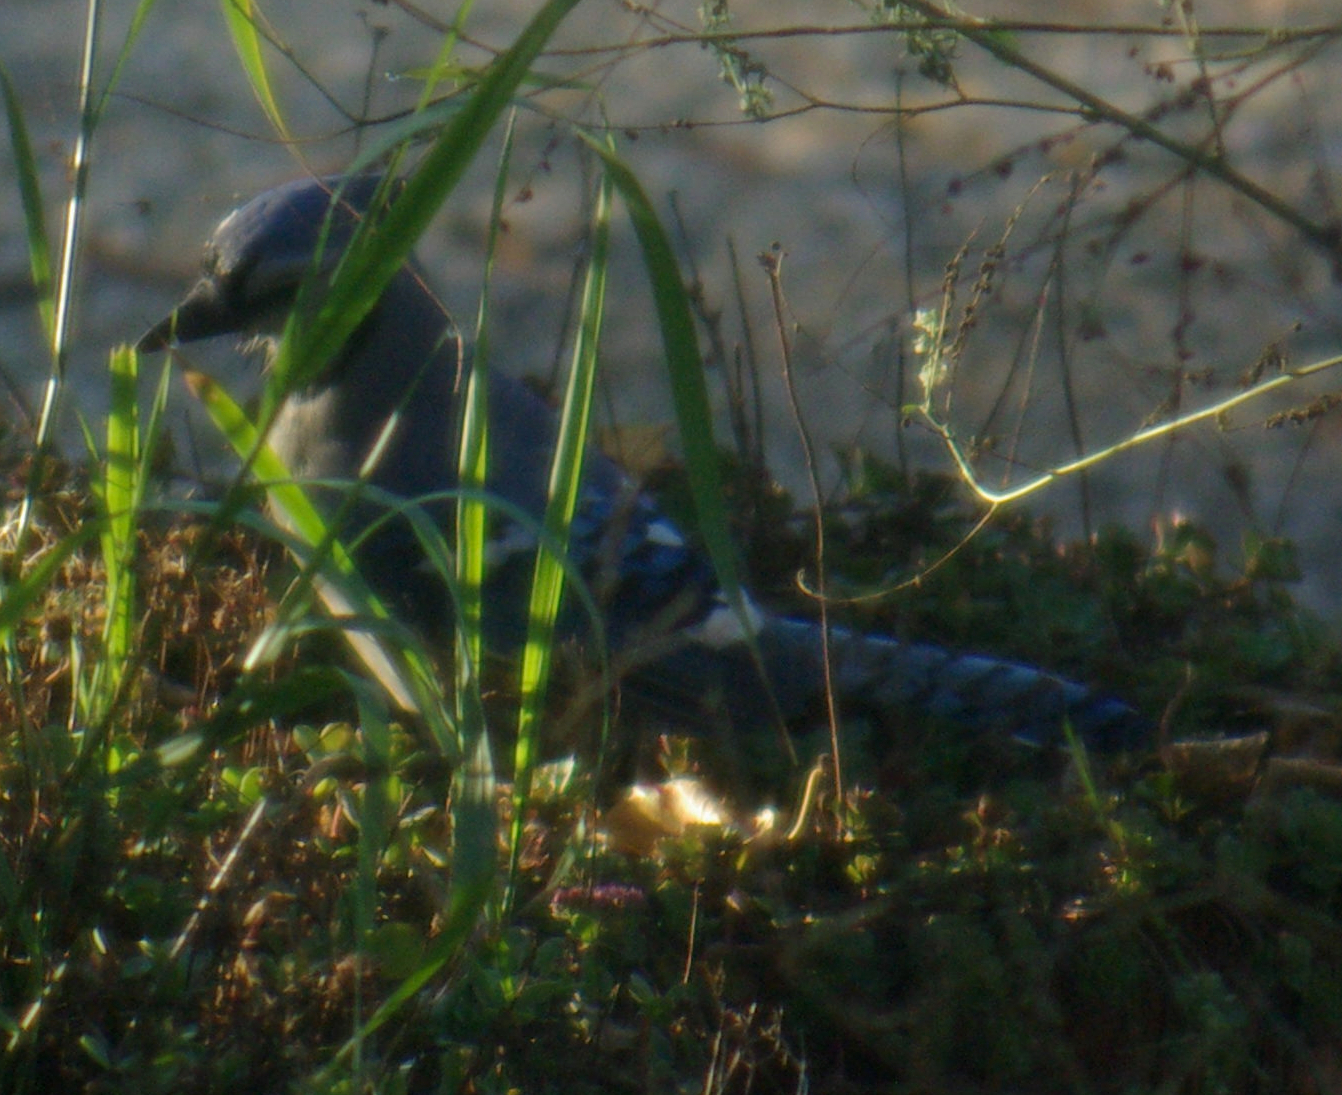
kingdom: Animalia
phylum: Chordata
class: Aves
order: Passeriformes
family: Corvidae
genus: Cyanocitta
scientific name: Cyanocitta cristata
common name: Blue jay
